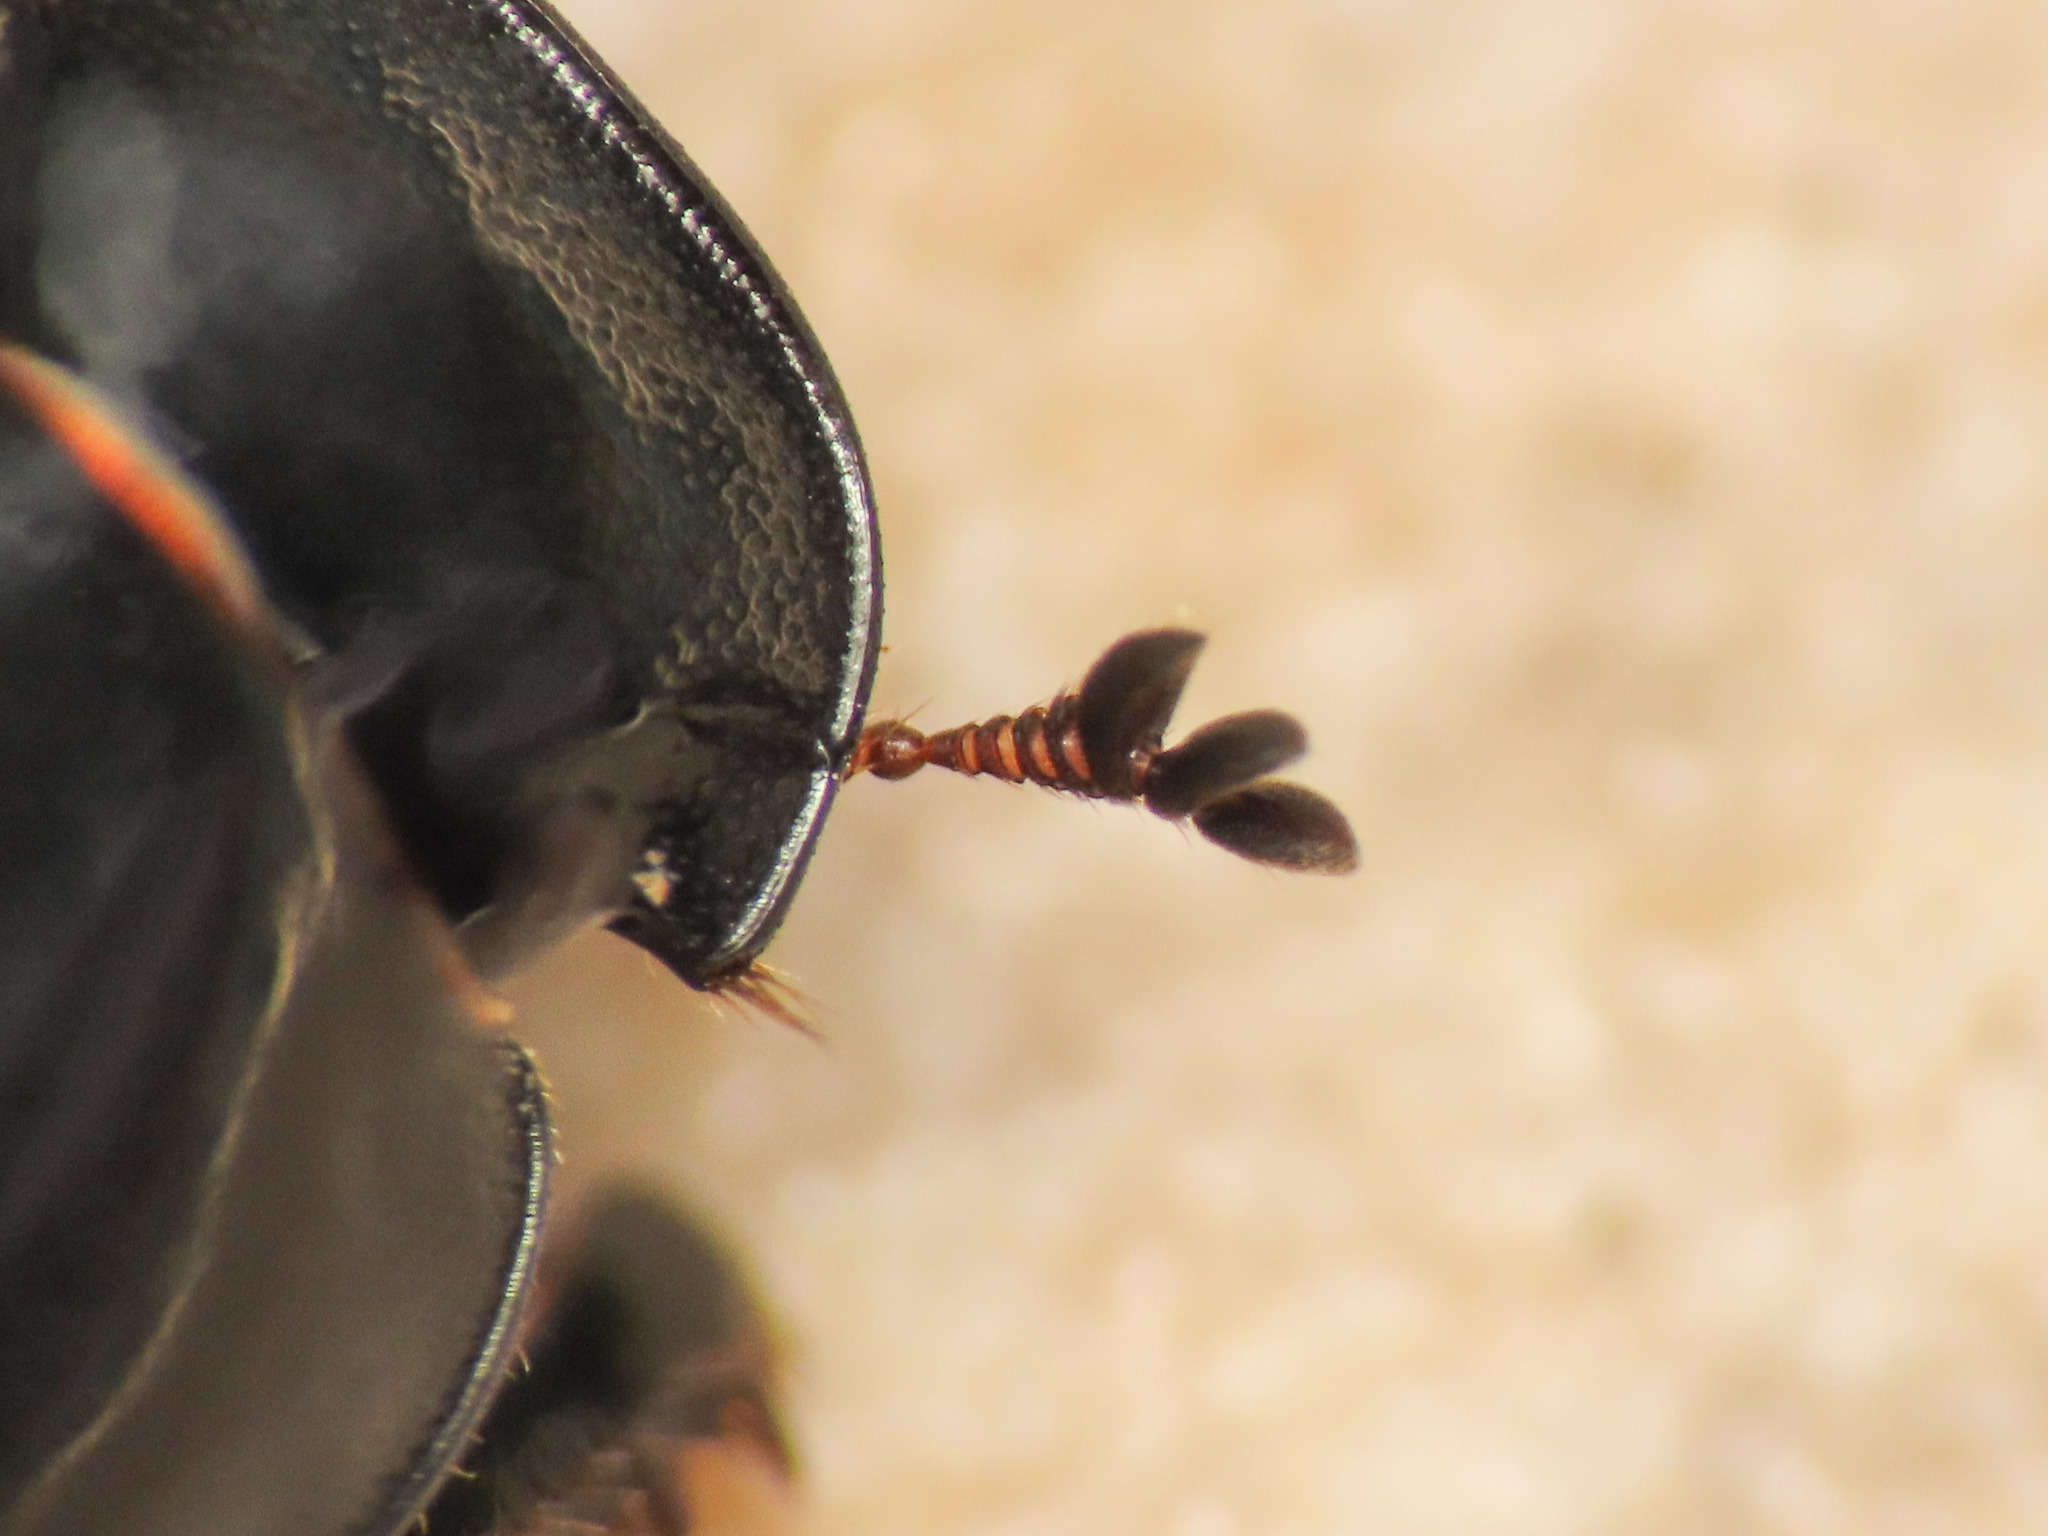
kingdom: Animalia
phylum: Arthropoda
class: Insecta
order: Coleoptera
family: Scarabaeidae
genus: Acrossus
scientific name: Acrossus luridus
